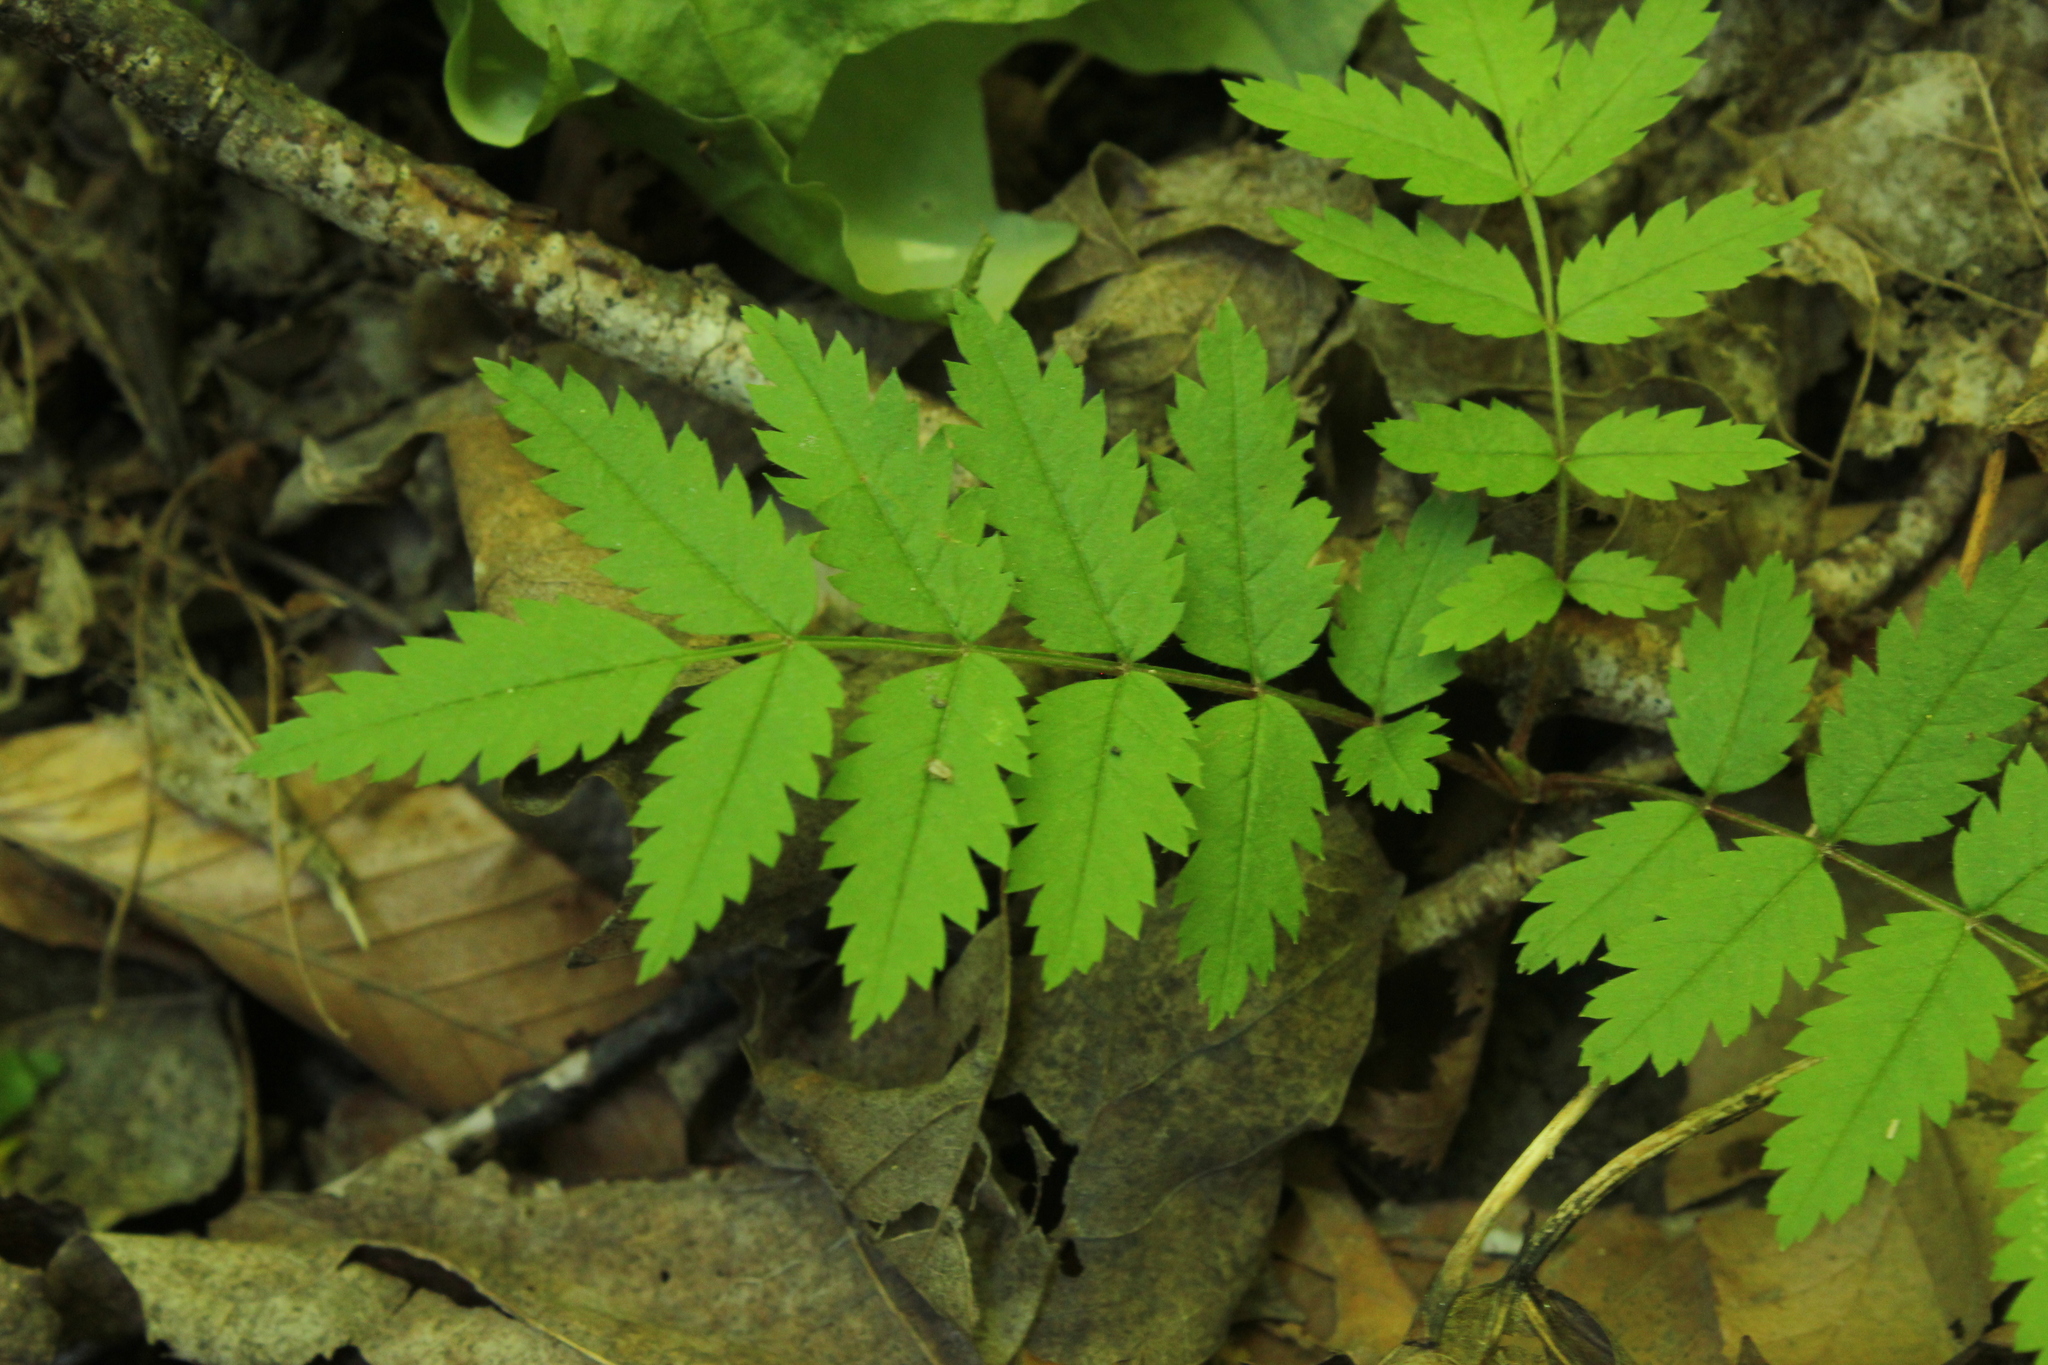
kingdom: Plantae
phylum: Tracheophyta
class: Magnoliopsida
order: Rosales
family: Rosaceae
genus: Sorbus
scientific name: Sorbus aucuparia
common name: Rowan
